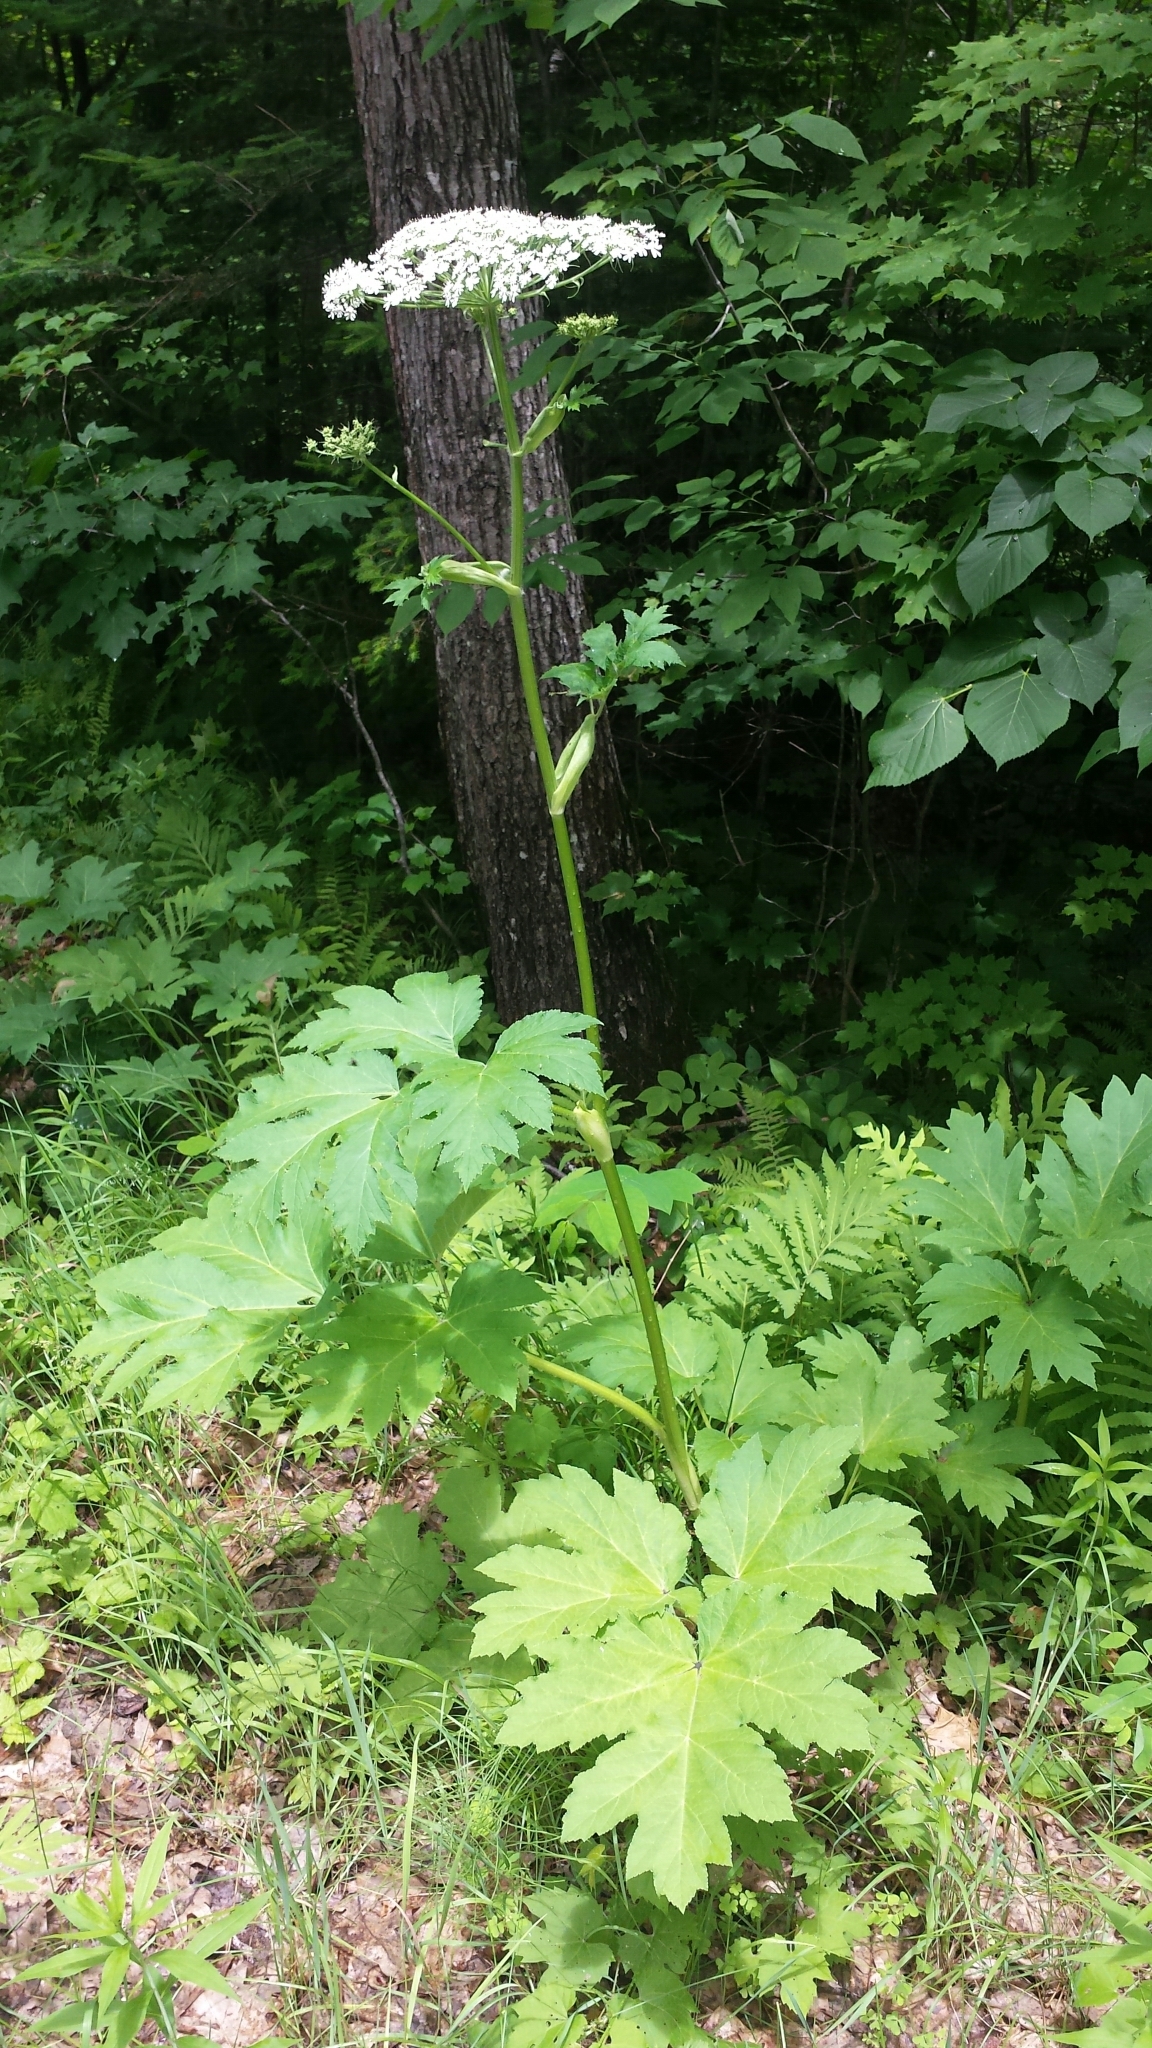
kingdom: Plantae
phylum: Tracheophyta
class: Magnoliopsida
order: Apiales
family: Apiaceae
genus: Heracleum
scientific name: Heracleum maximum
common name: American cow parsnip
